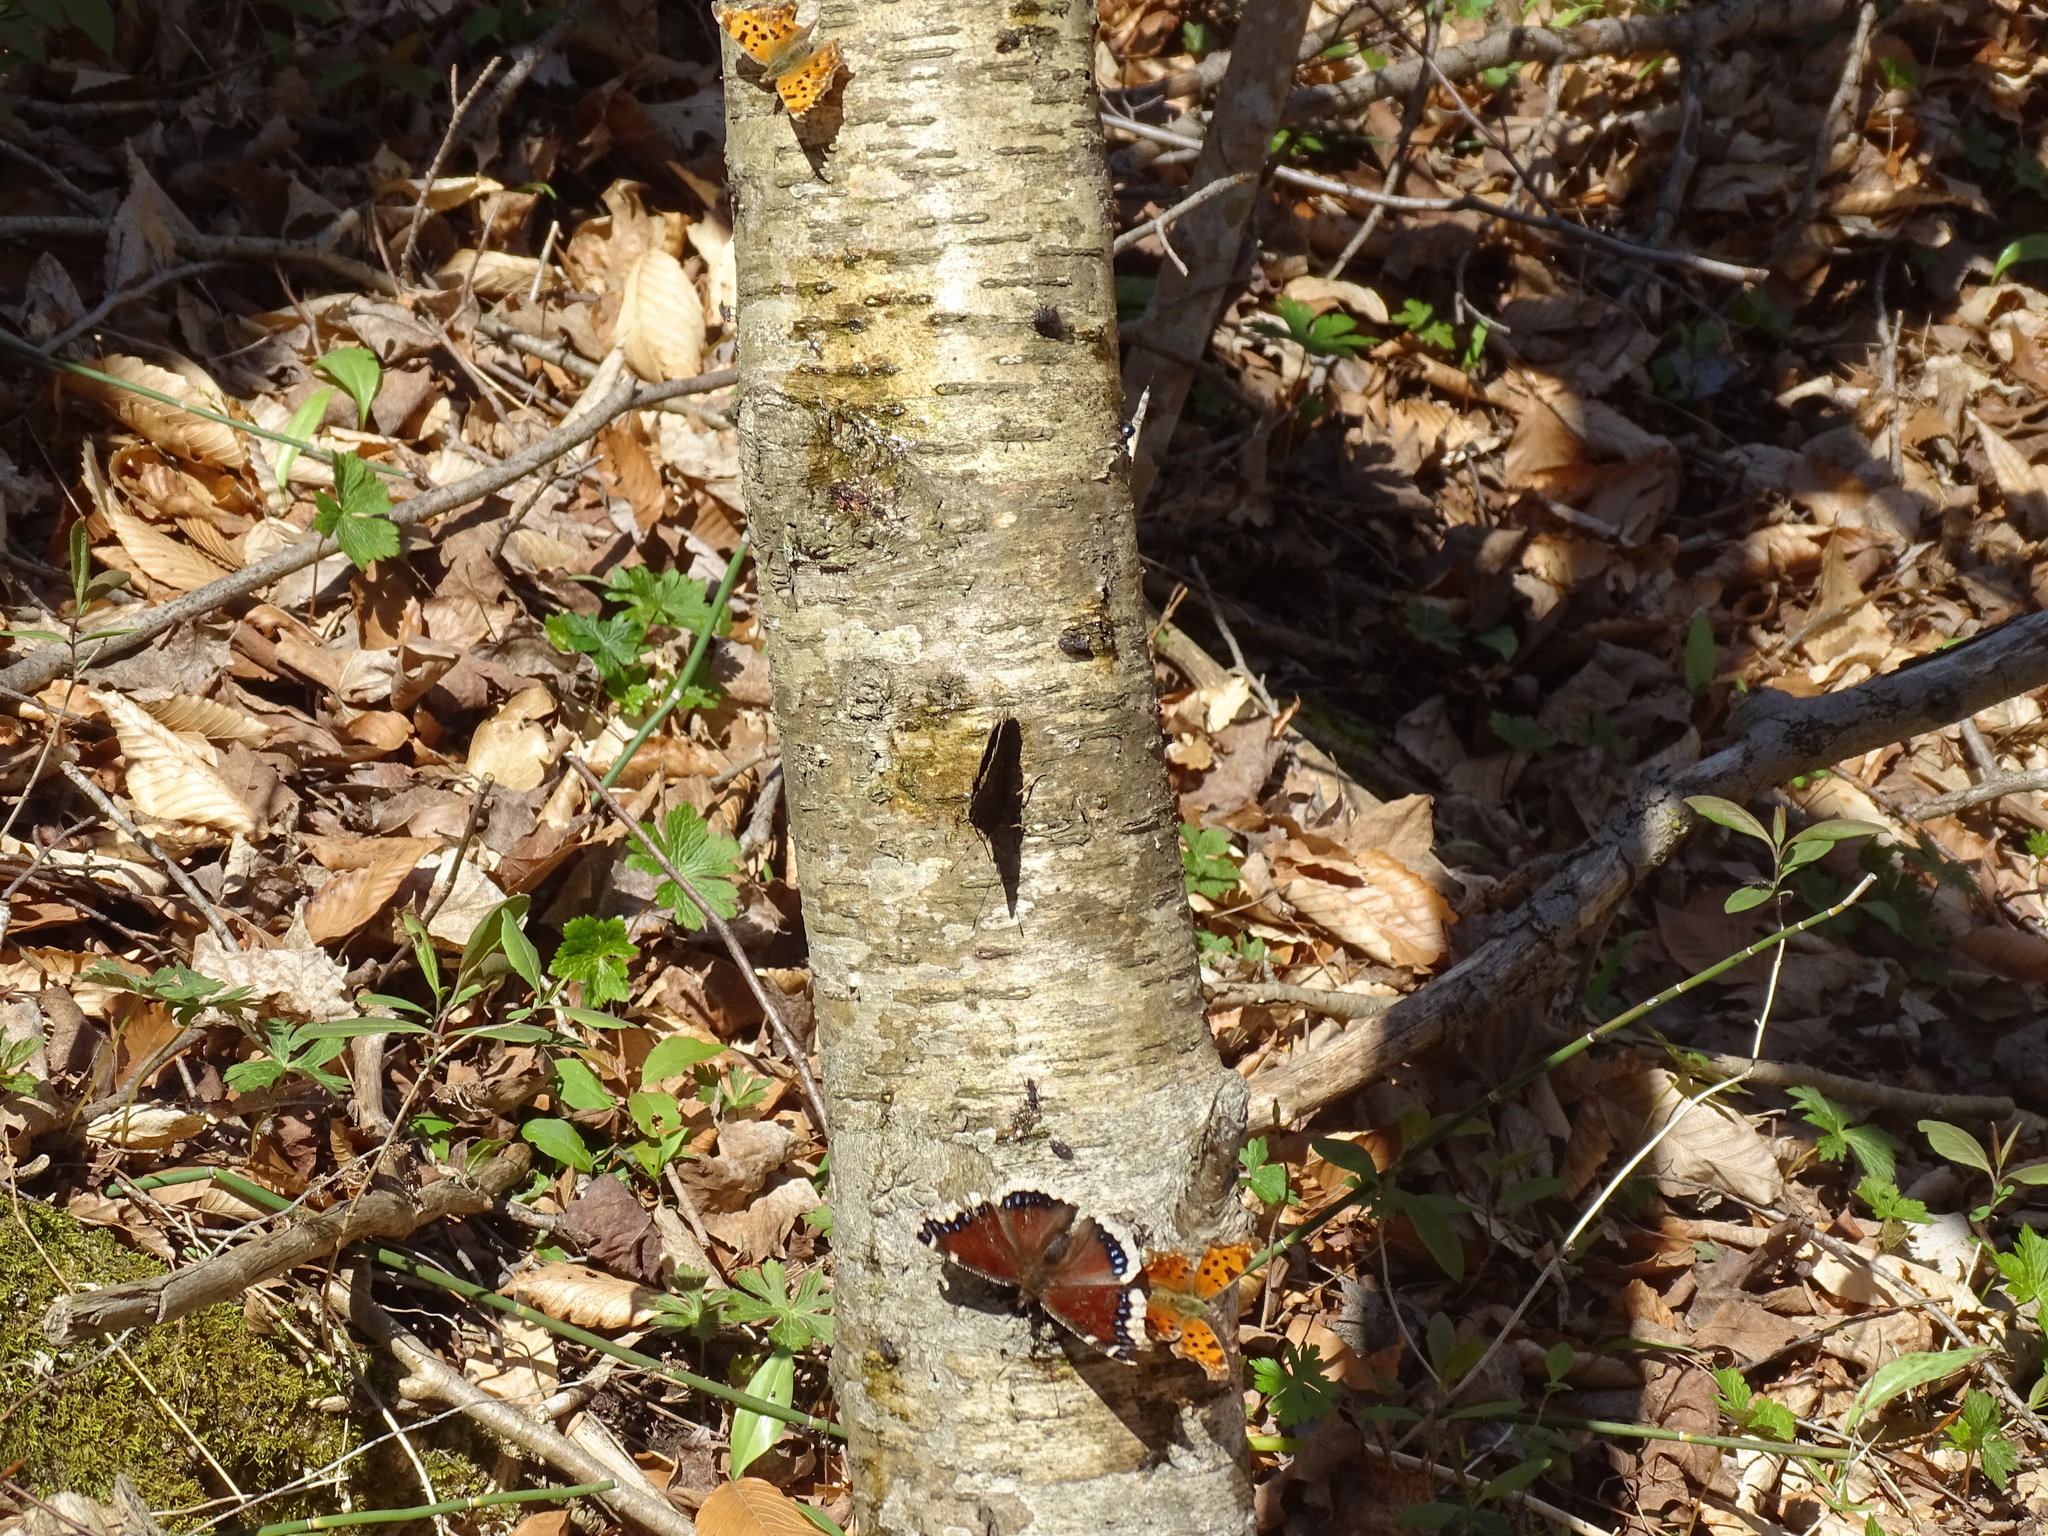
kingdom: Animalia
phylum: Arthropoda
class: Insecta
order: Lepidoptera
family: Nymphalidae
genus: Nymphalis
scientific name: Nymphalis antiopa
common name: Camberwell beauty
